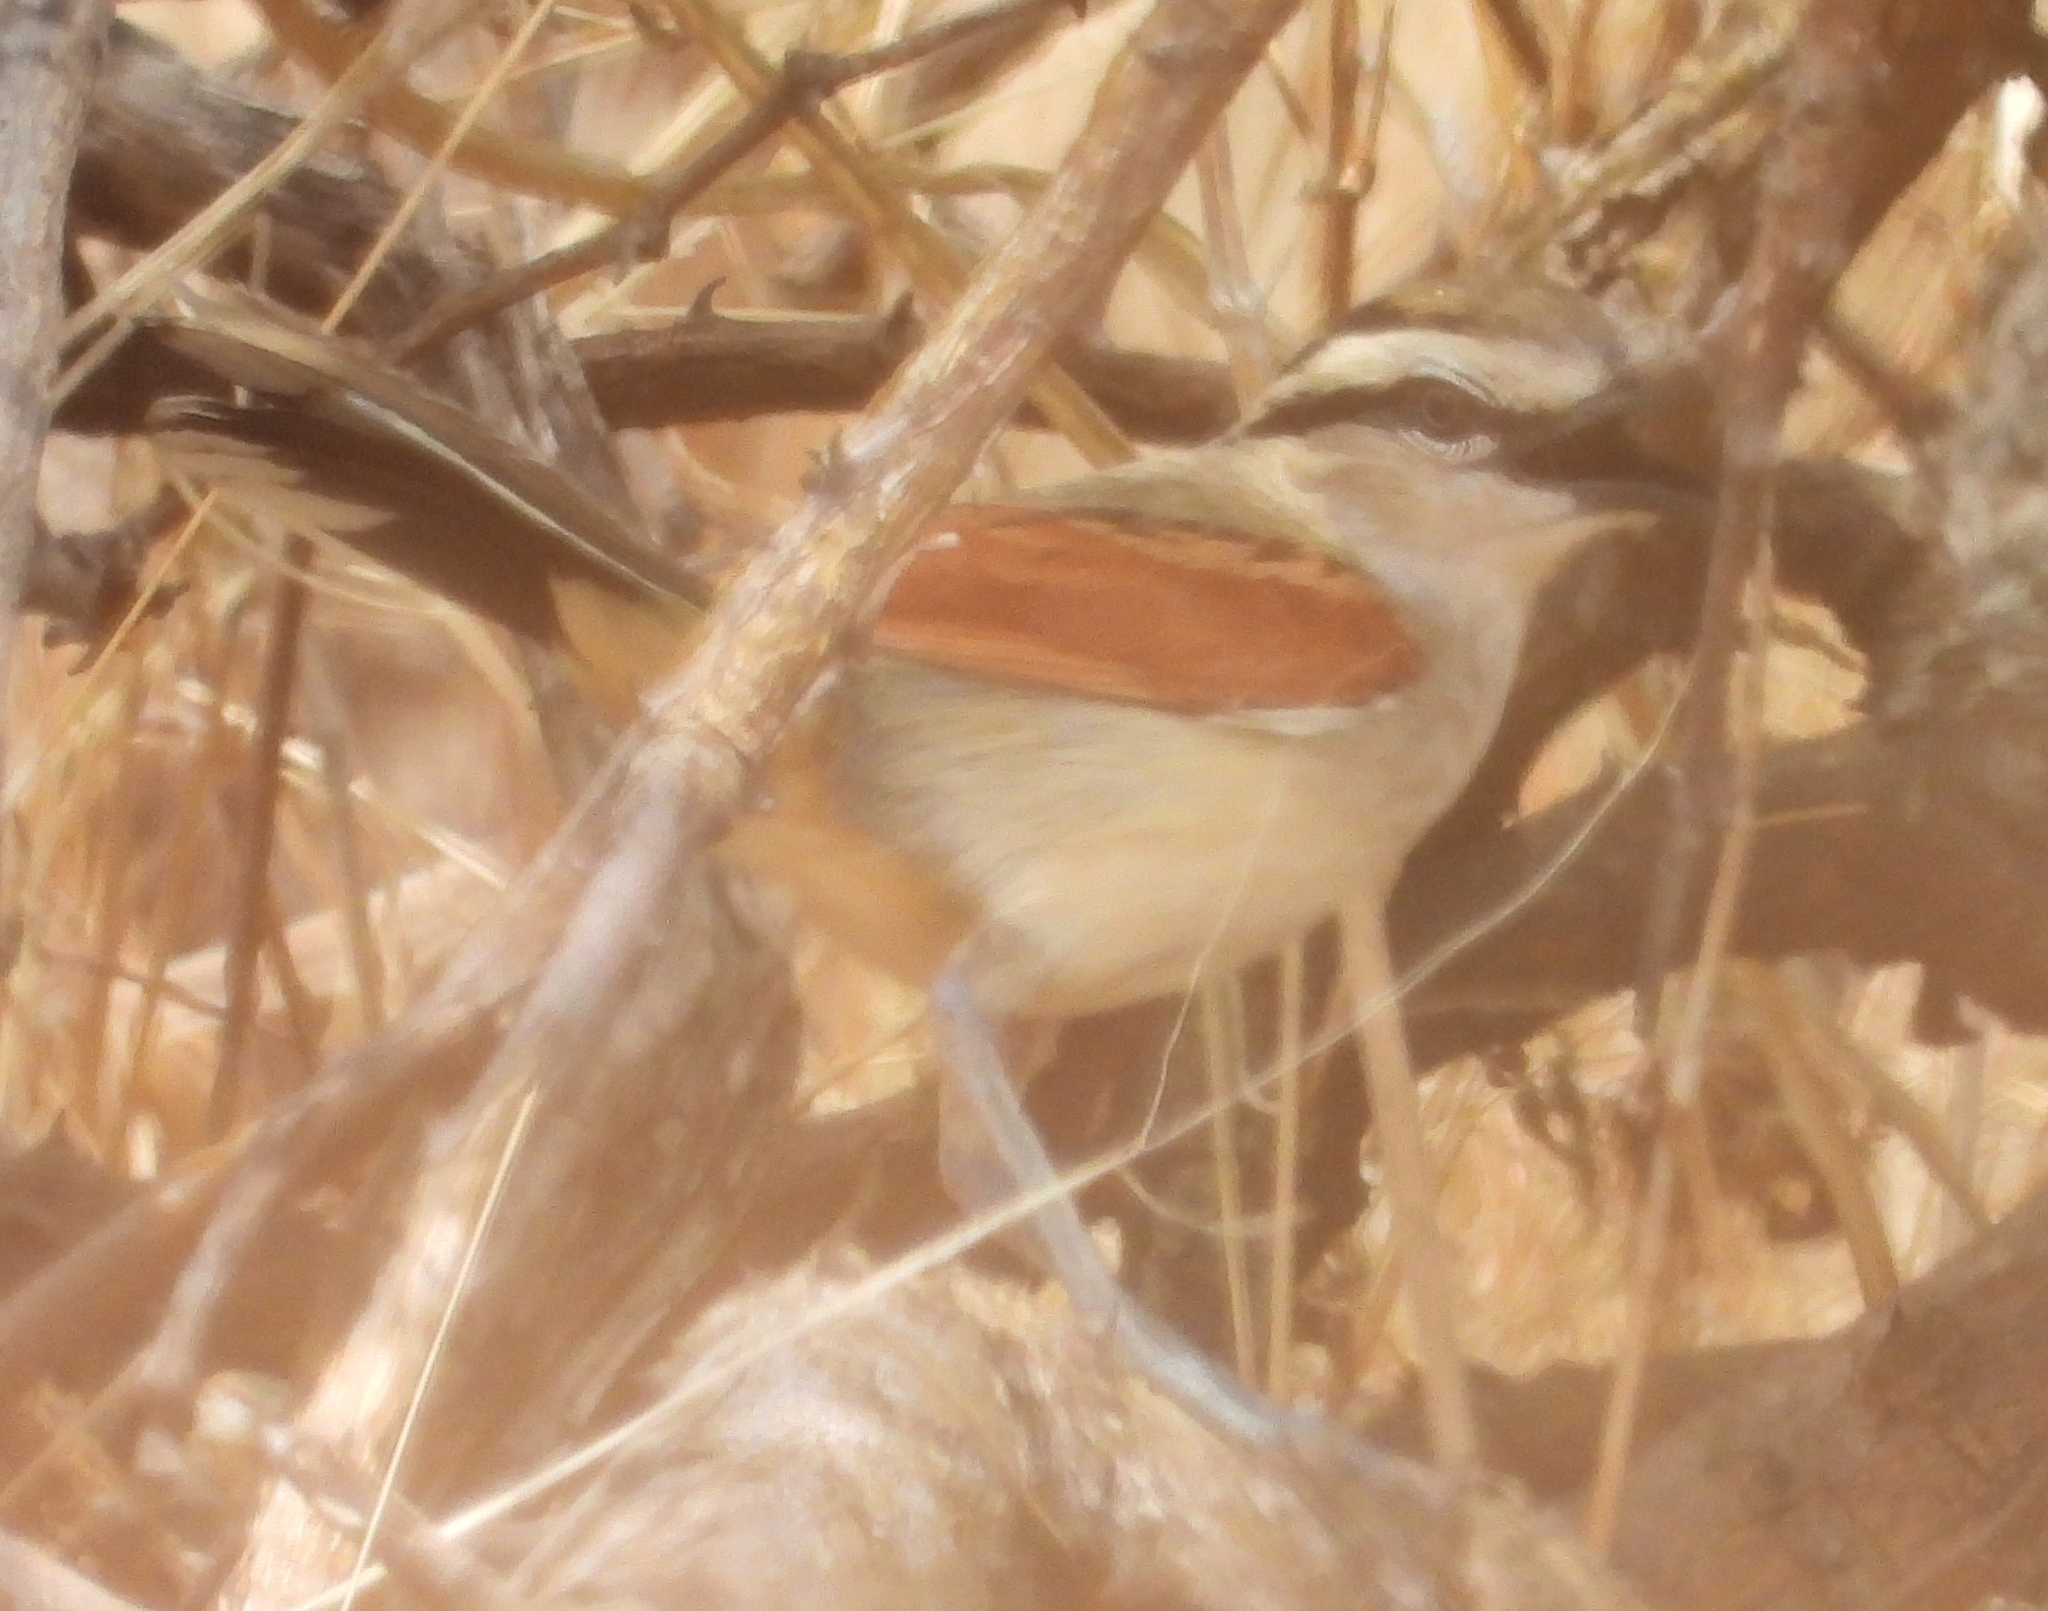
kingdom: Animalia
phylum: Chordata
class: Aves
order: Passeriformes
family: Malaconotidae
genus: Tchagra
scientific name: Tchagra australis
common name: Brown-crowned tchagra
